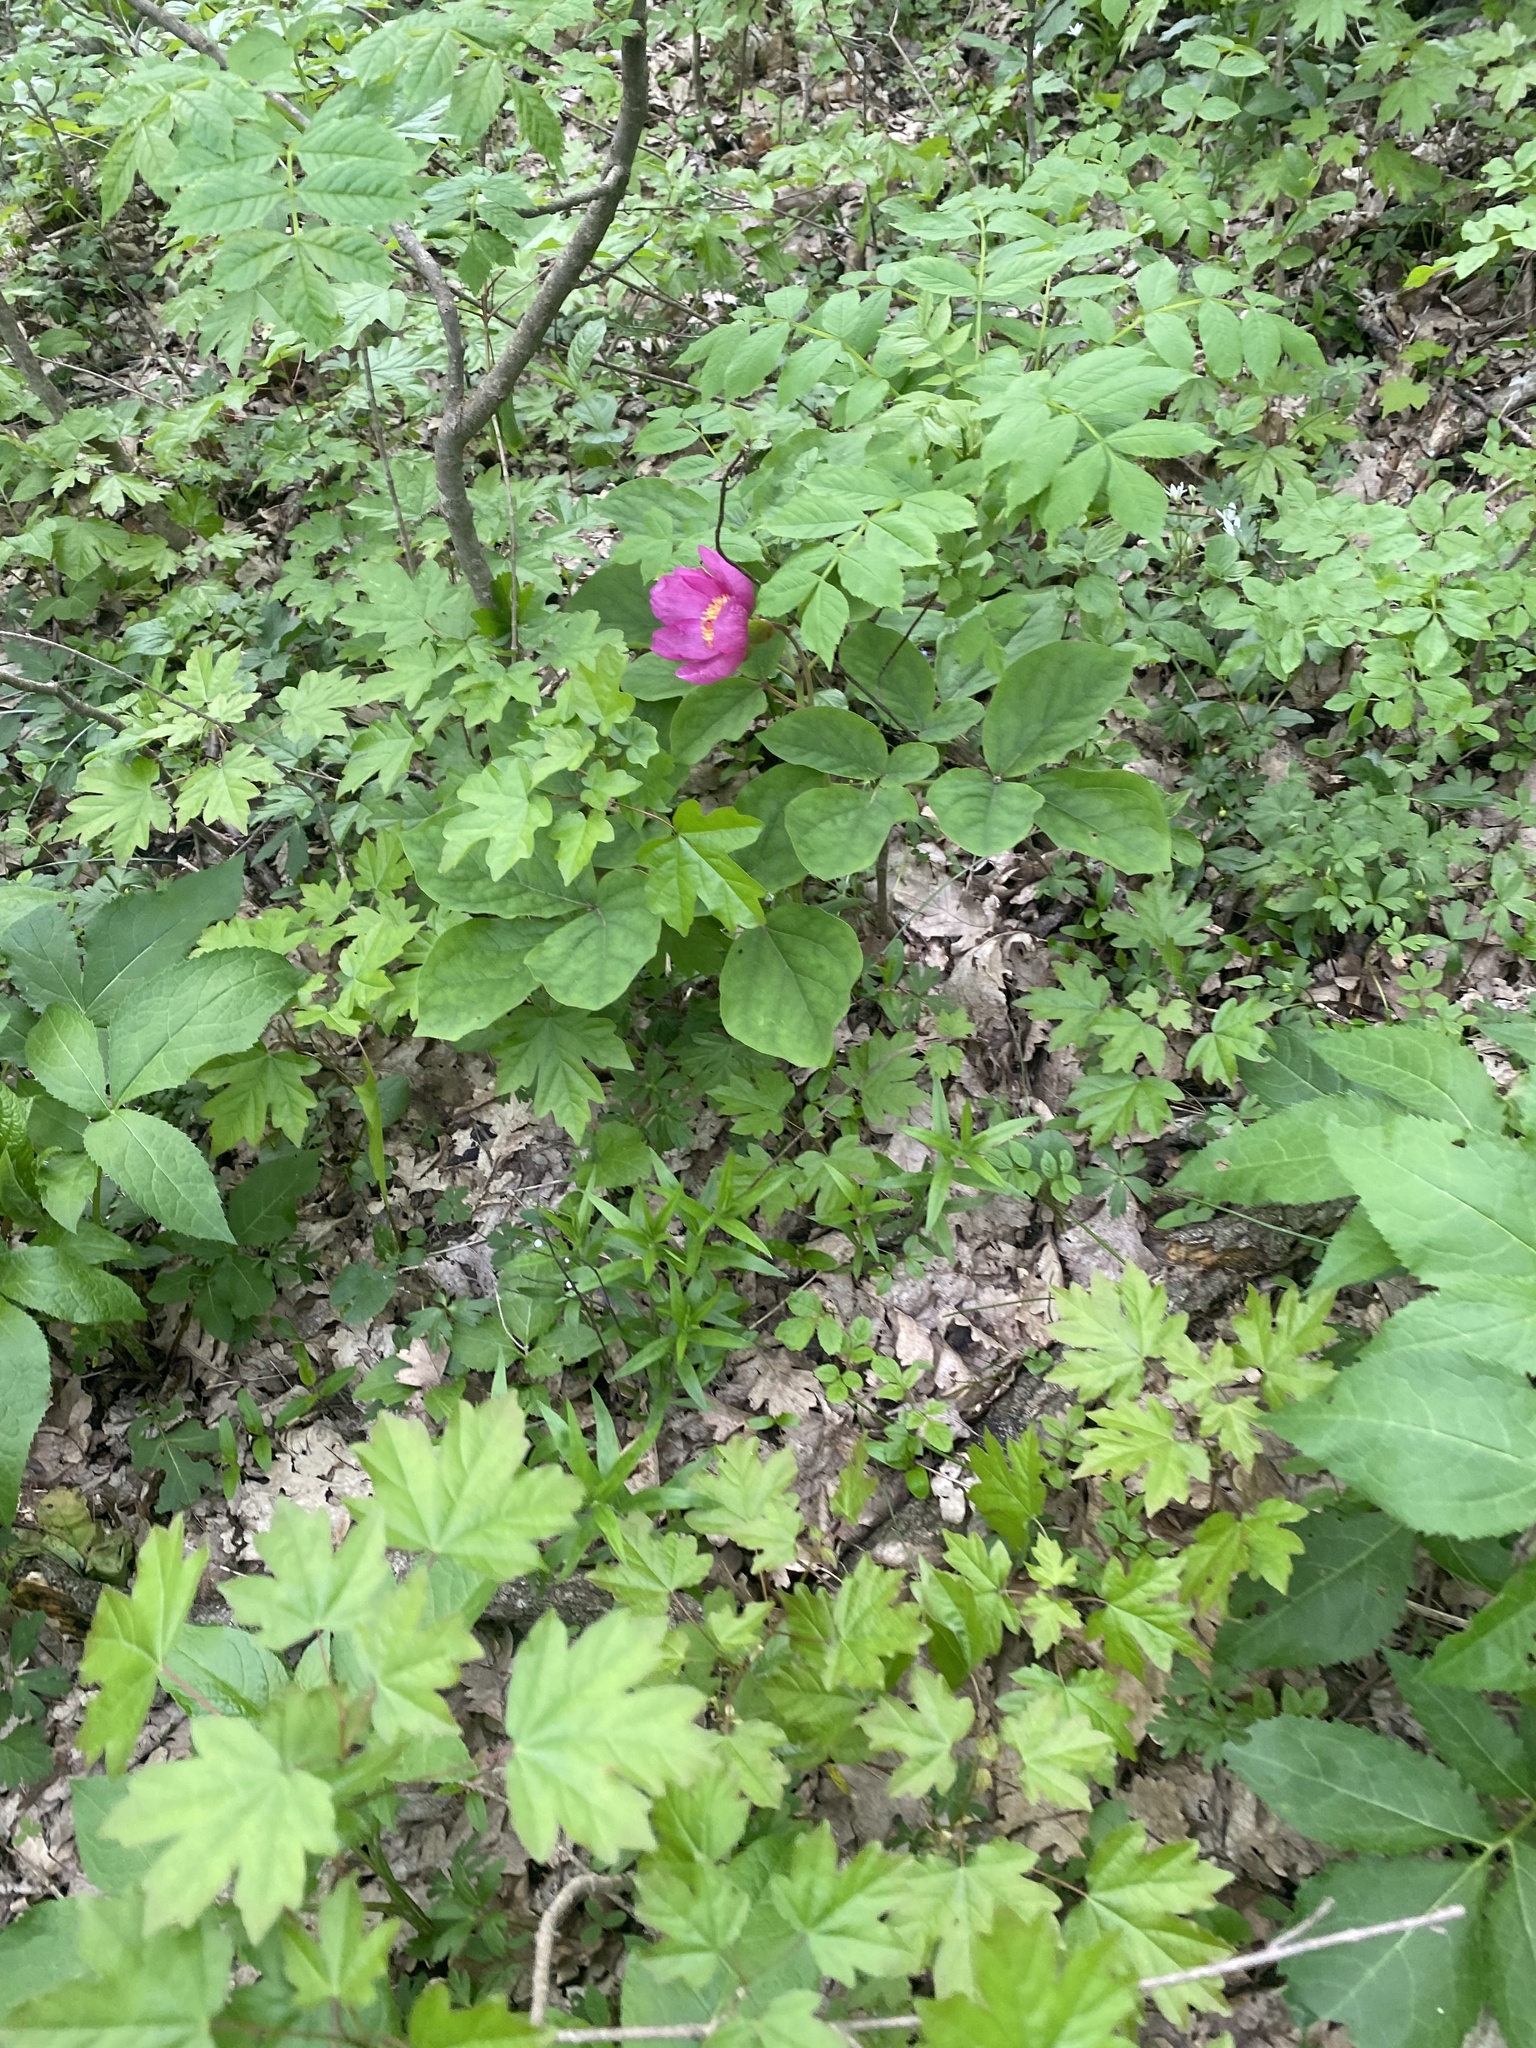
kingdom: Plantae
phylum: Tracheophyta
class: Magnoliopsida
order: Saxifragales
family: Paeoniaceae
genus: Paeonia
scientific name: Paeonia caucasica
